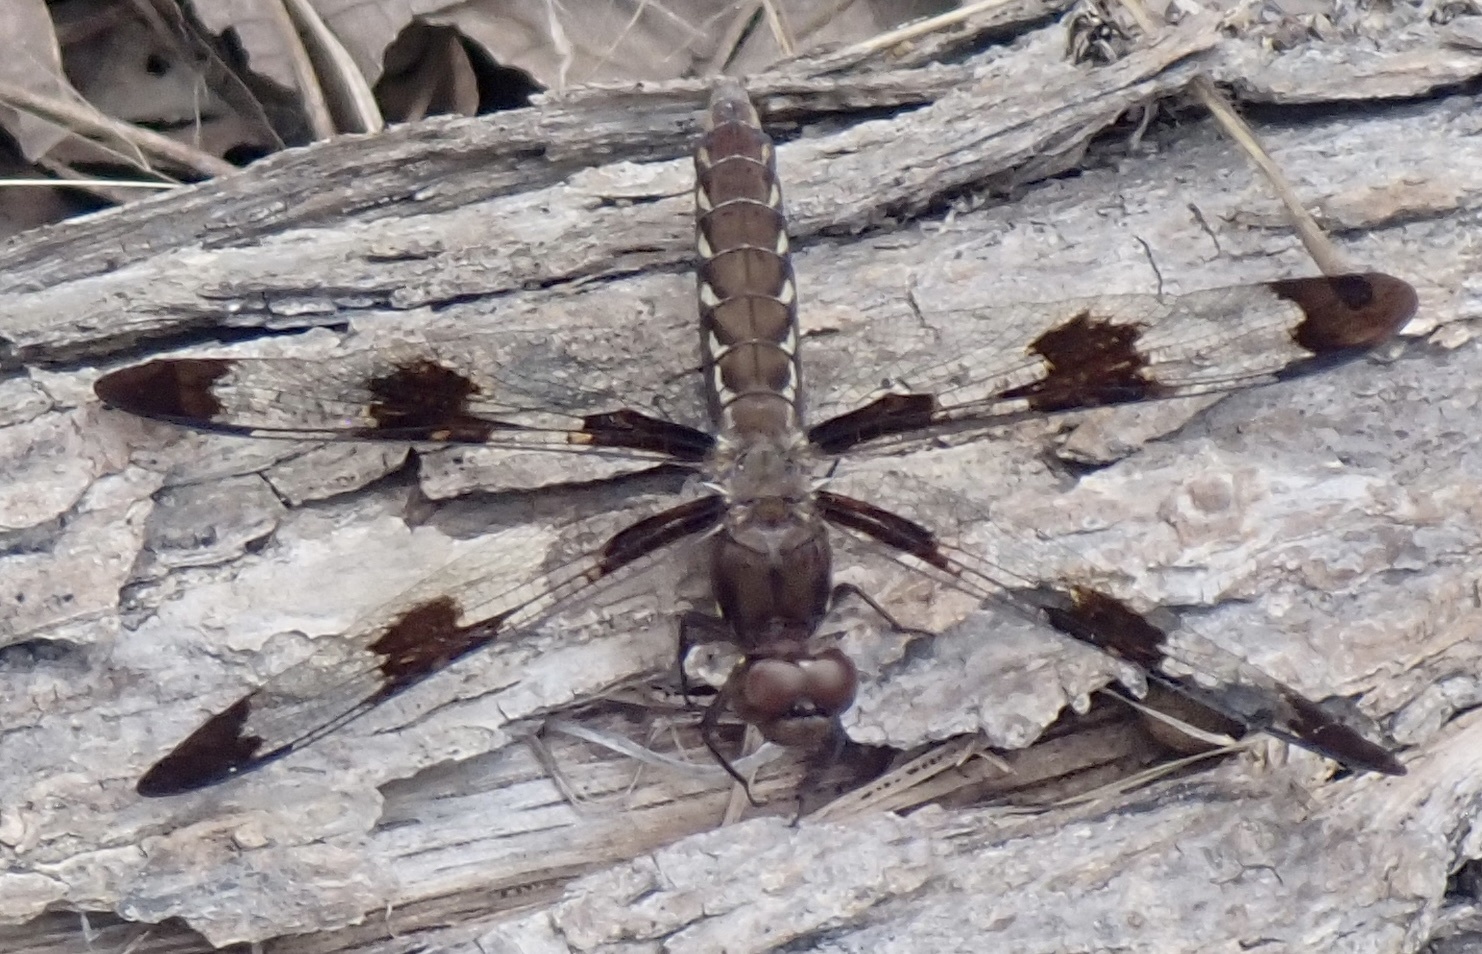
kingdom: Animalia
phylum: Arthropoda
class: Insecta
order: Odonata
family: Libellulidae
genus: Plathemis
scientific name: Plathemis lydia
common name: Common whitetail
